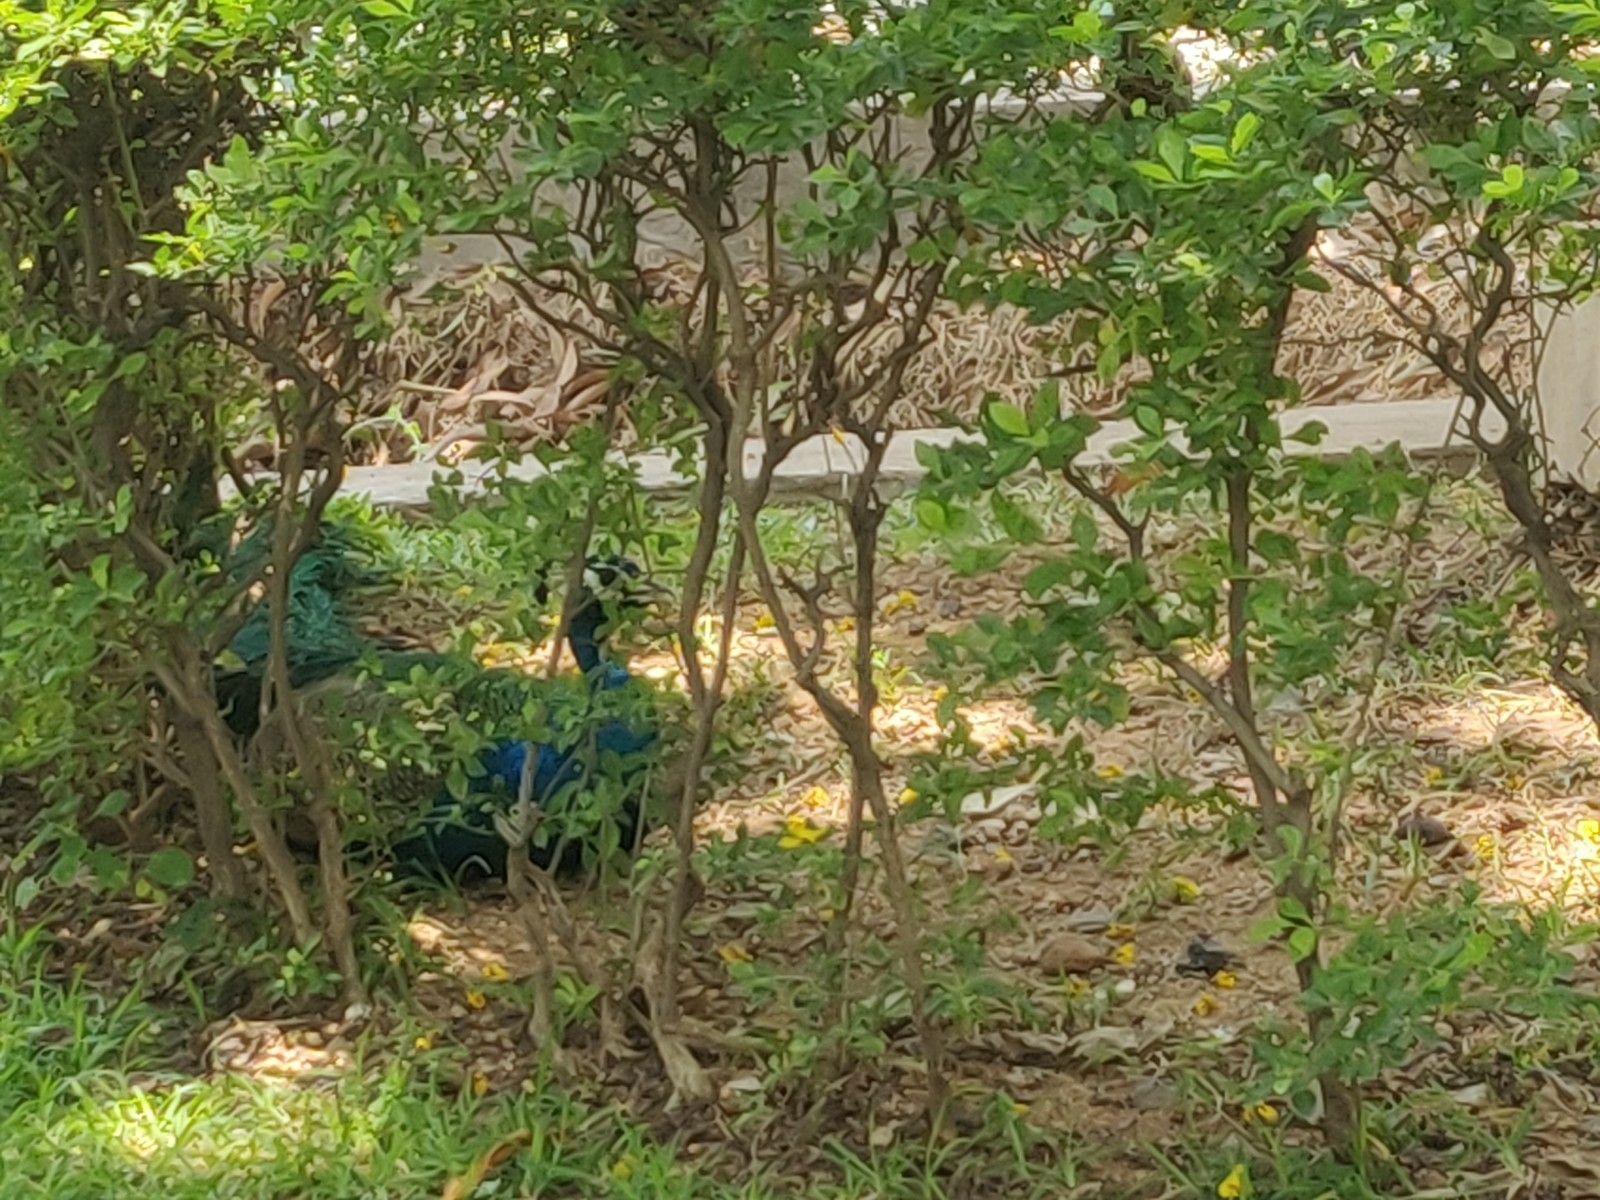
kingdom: Animalia
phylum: Chordata
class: Aves
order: Galliformes
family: Phasianidae
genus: Pavo
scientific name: Pavo cristatus
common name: Indian peafowl
